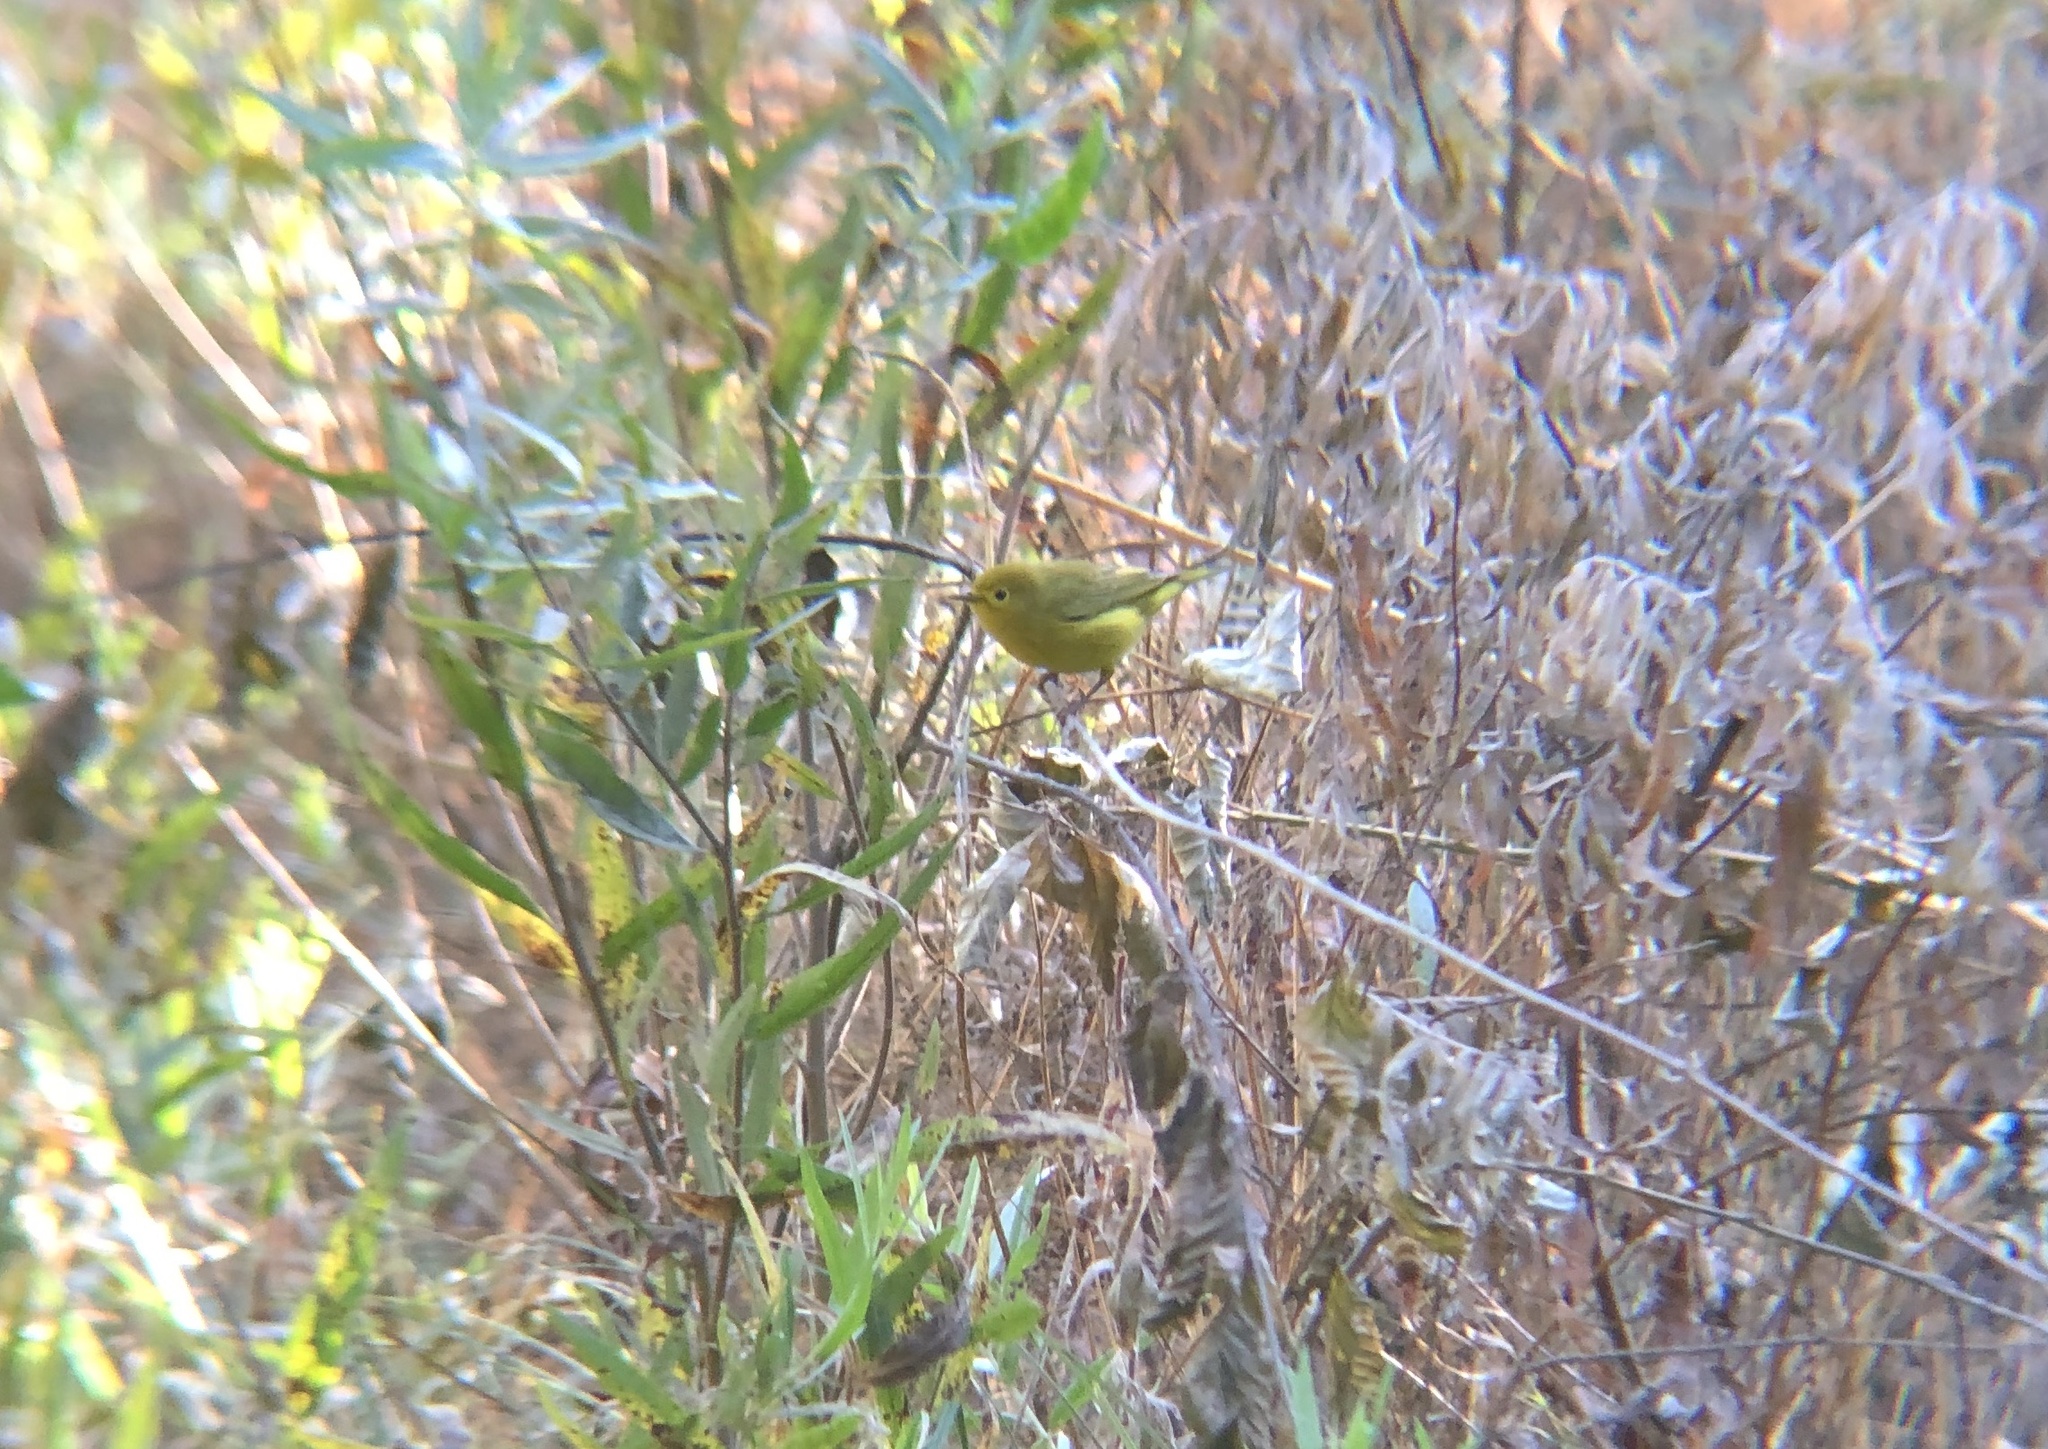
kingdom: Animalia
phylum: Chordata
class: Aves
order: Passeriformes
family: Parulidae
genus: Setophaga
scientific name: Setophaga petechia
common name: Yellow warbler
